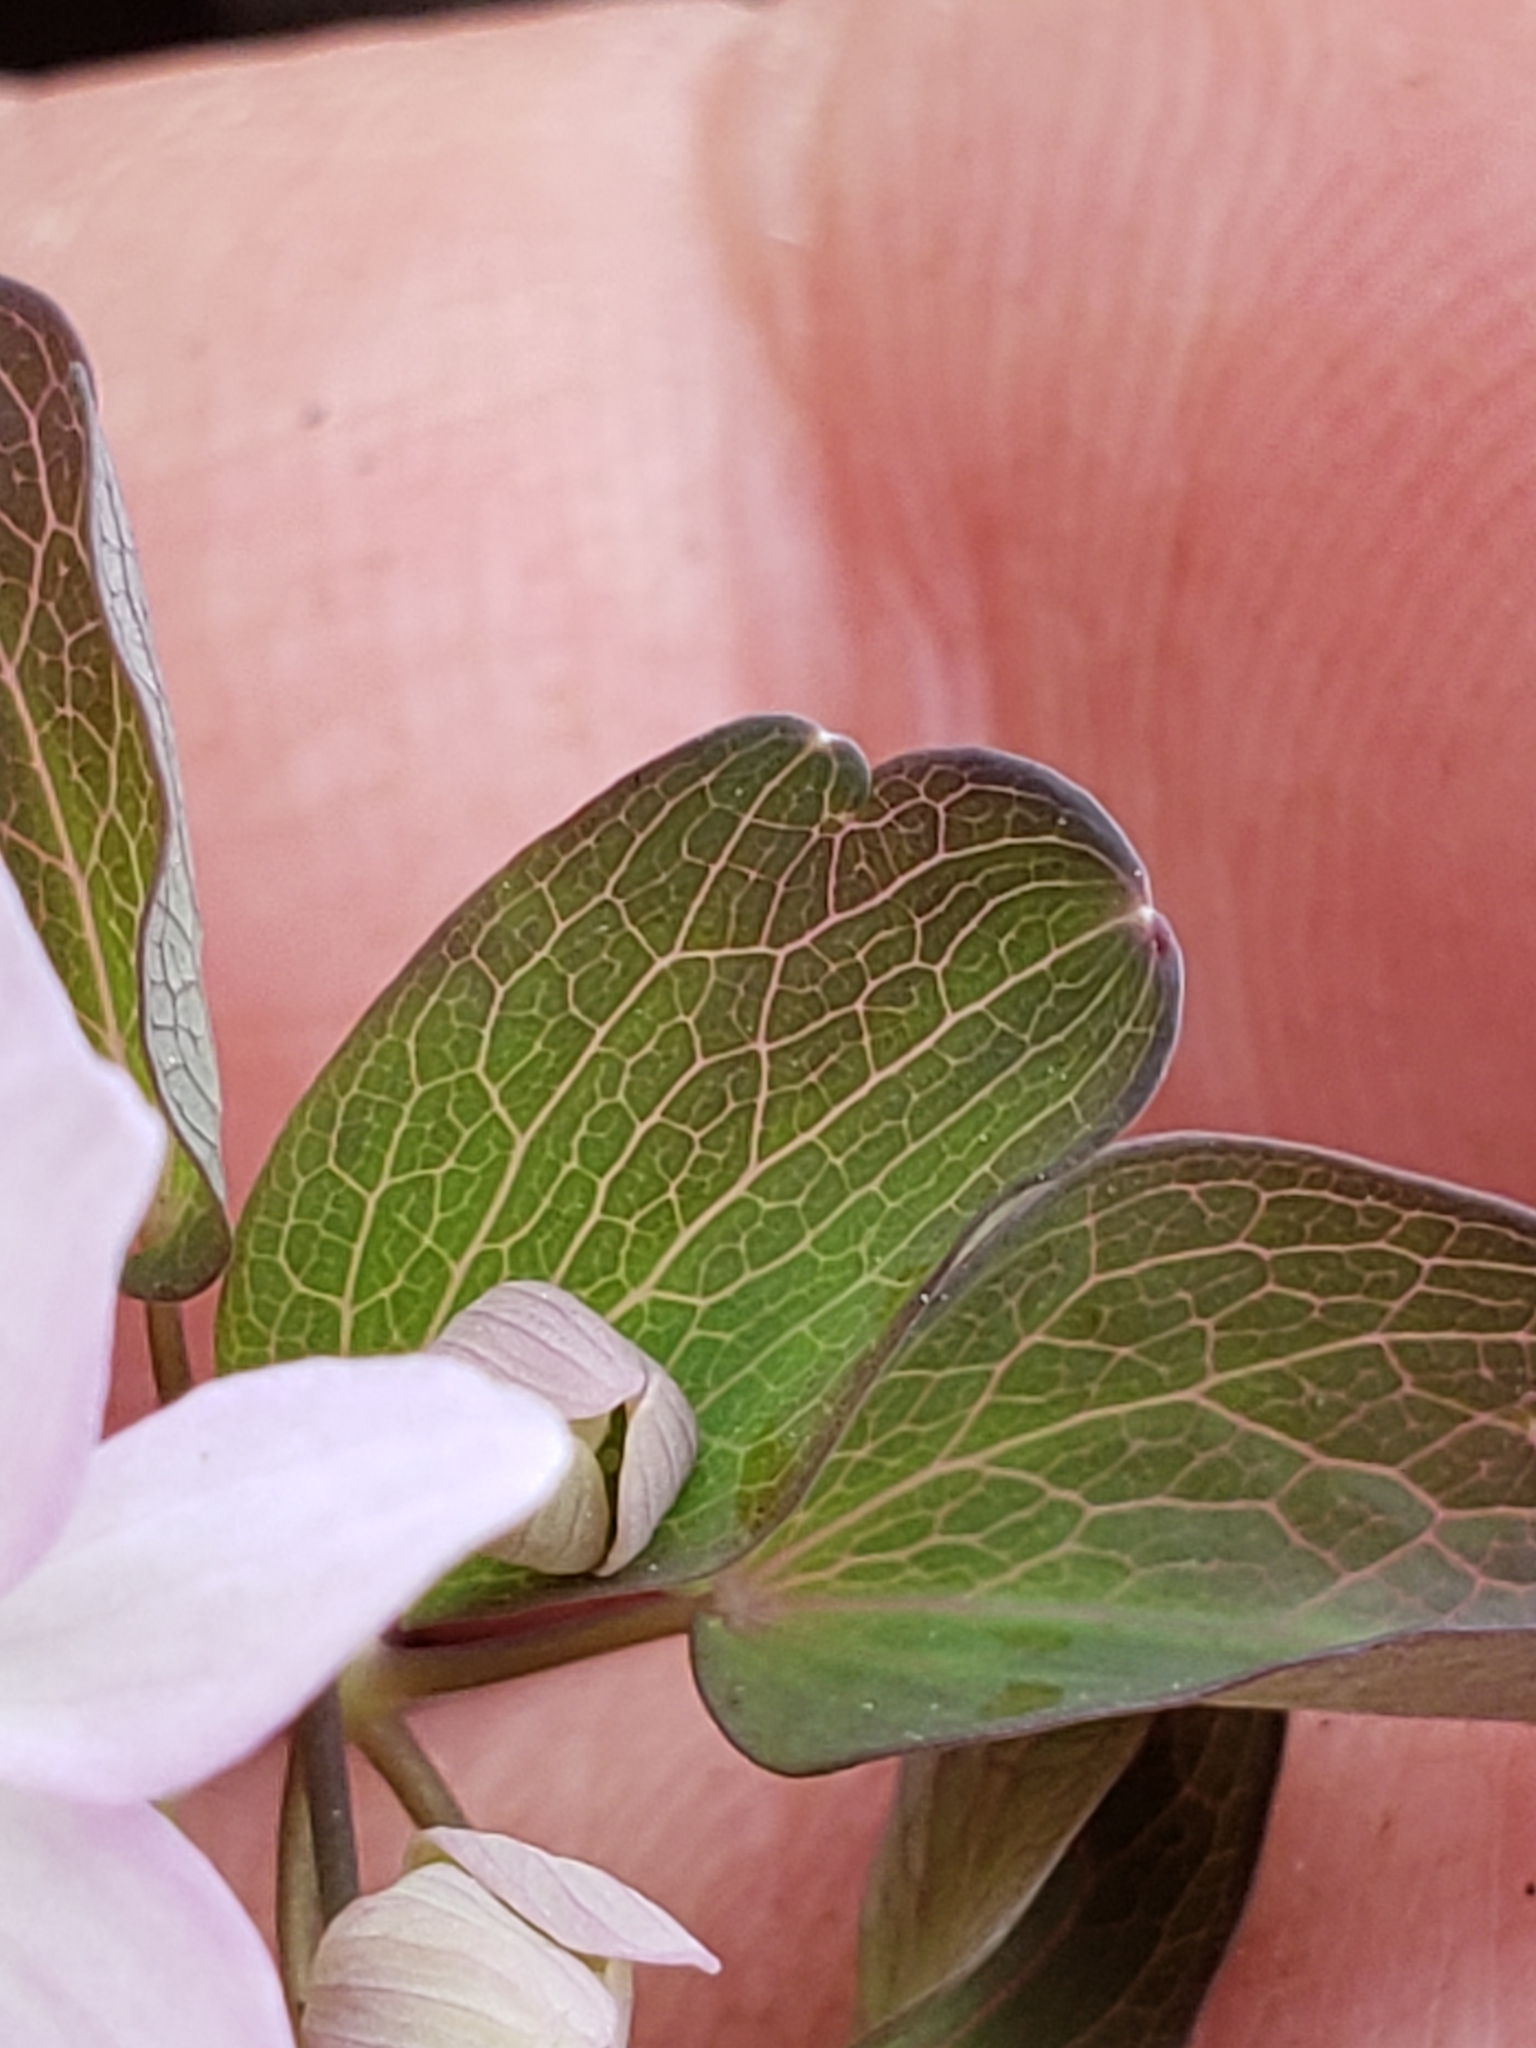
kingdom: Plantae
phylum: Tracheophyta
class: Magnoliopsida
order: Ranunculales
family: Ranunculaceae
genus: Thalictrum
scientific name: Thalictrum thalictroides
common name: Rue-anemone
